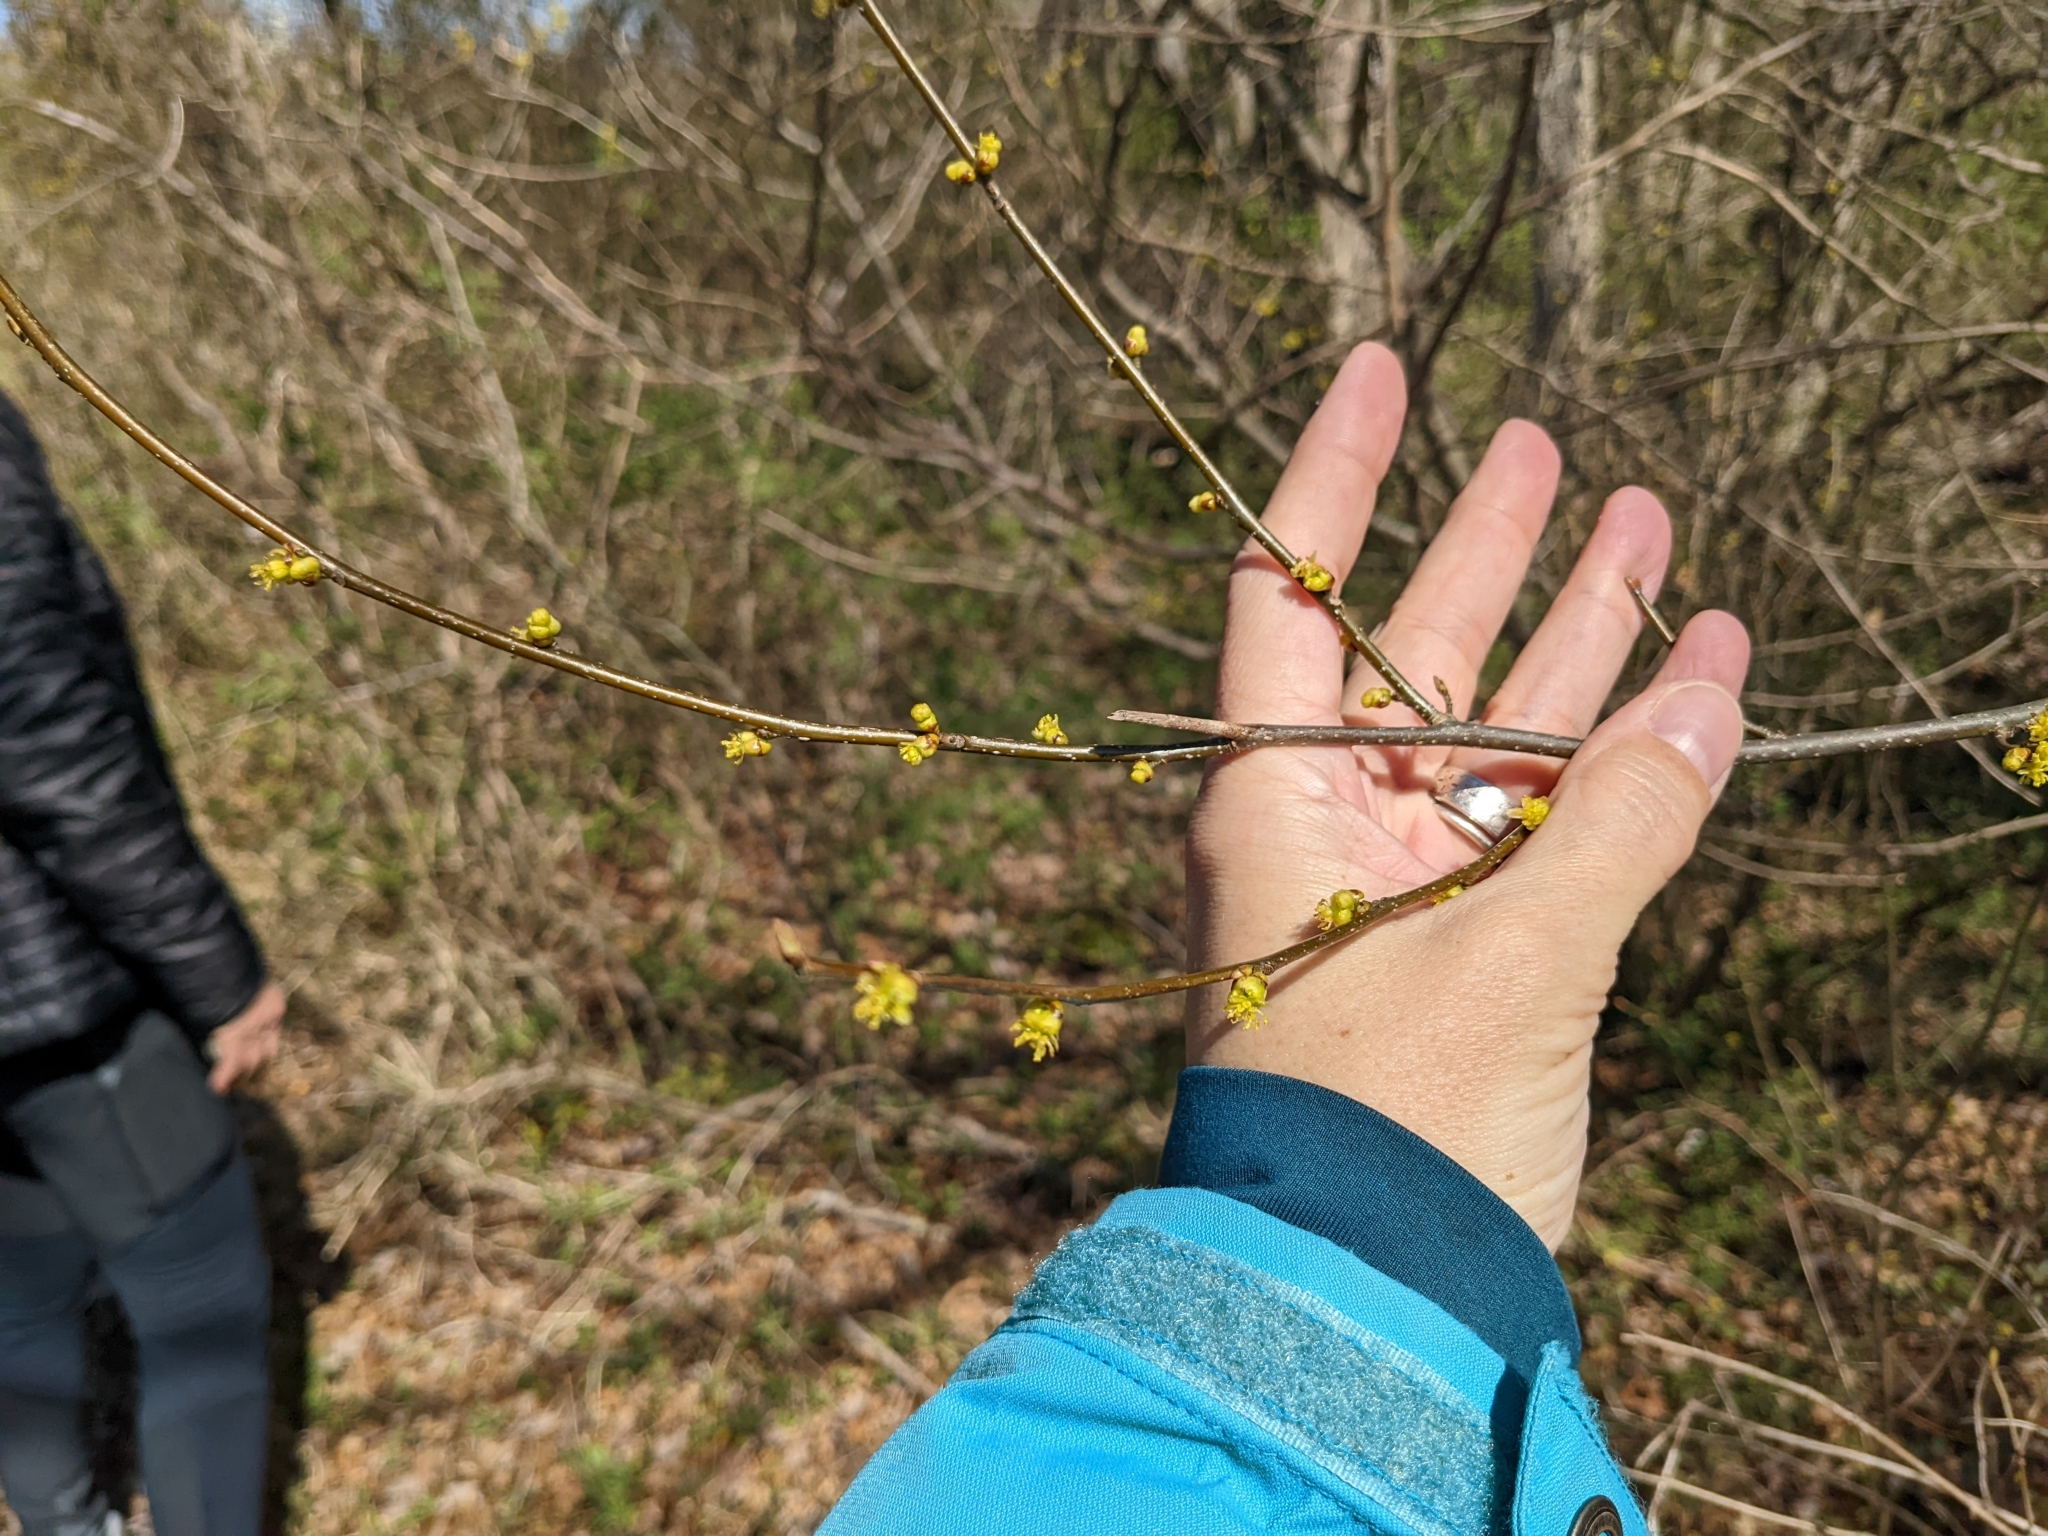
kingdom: Plantae
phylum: Tracheophyta
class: Magnoliopsida
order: Laurales
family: Lauraceae
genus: Lindera
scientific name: Lindera benzoin
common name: Spicebush
